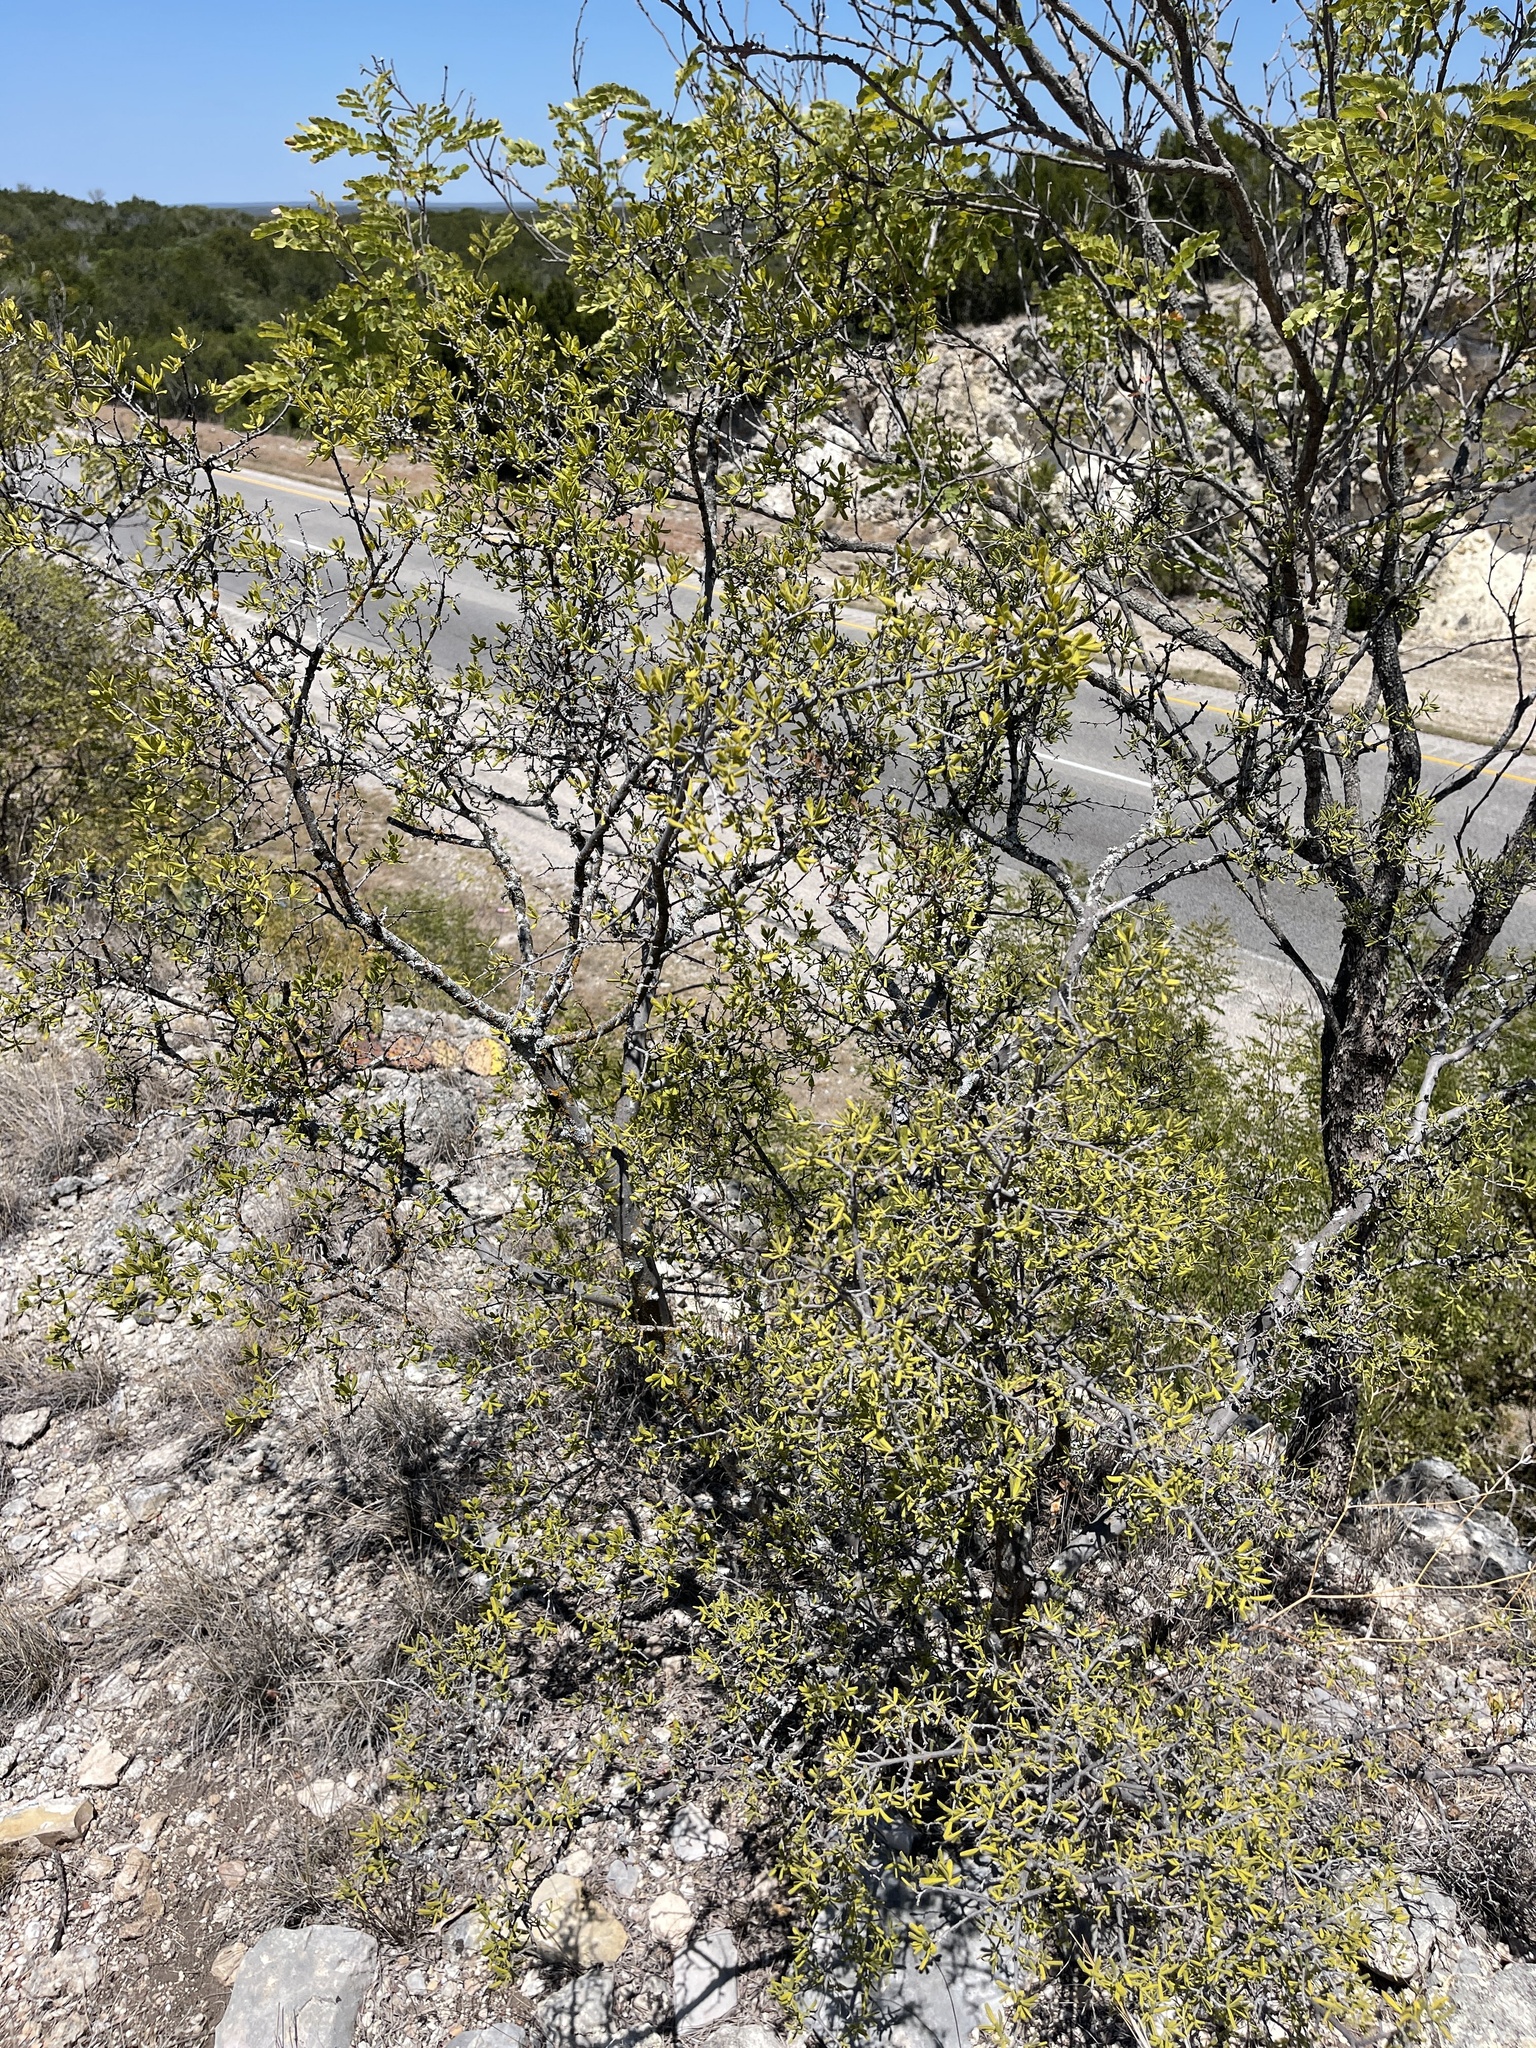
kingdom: Plantae
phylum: Tracheophyta
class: Magnoliopsida
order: Ericales
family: Ebenaceae
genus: Diospyros
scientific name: Diospyros texana
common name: Texas persimmon
